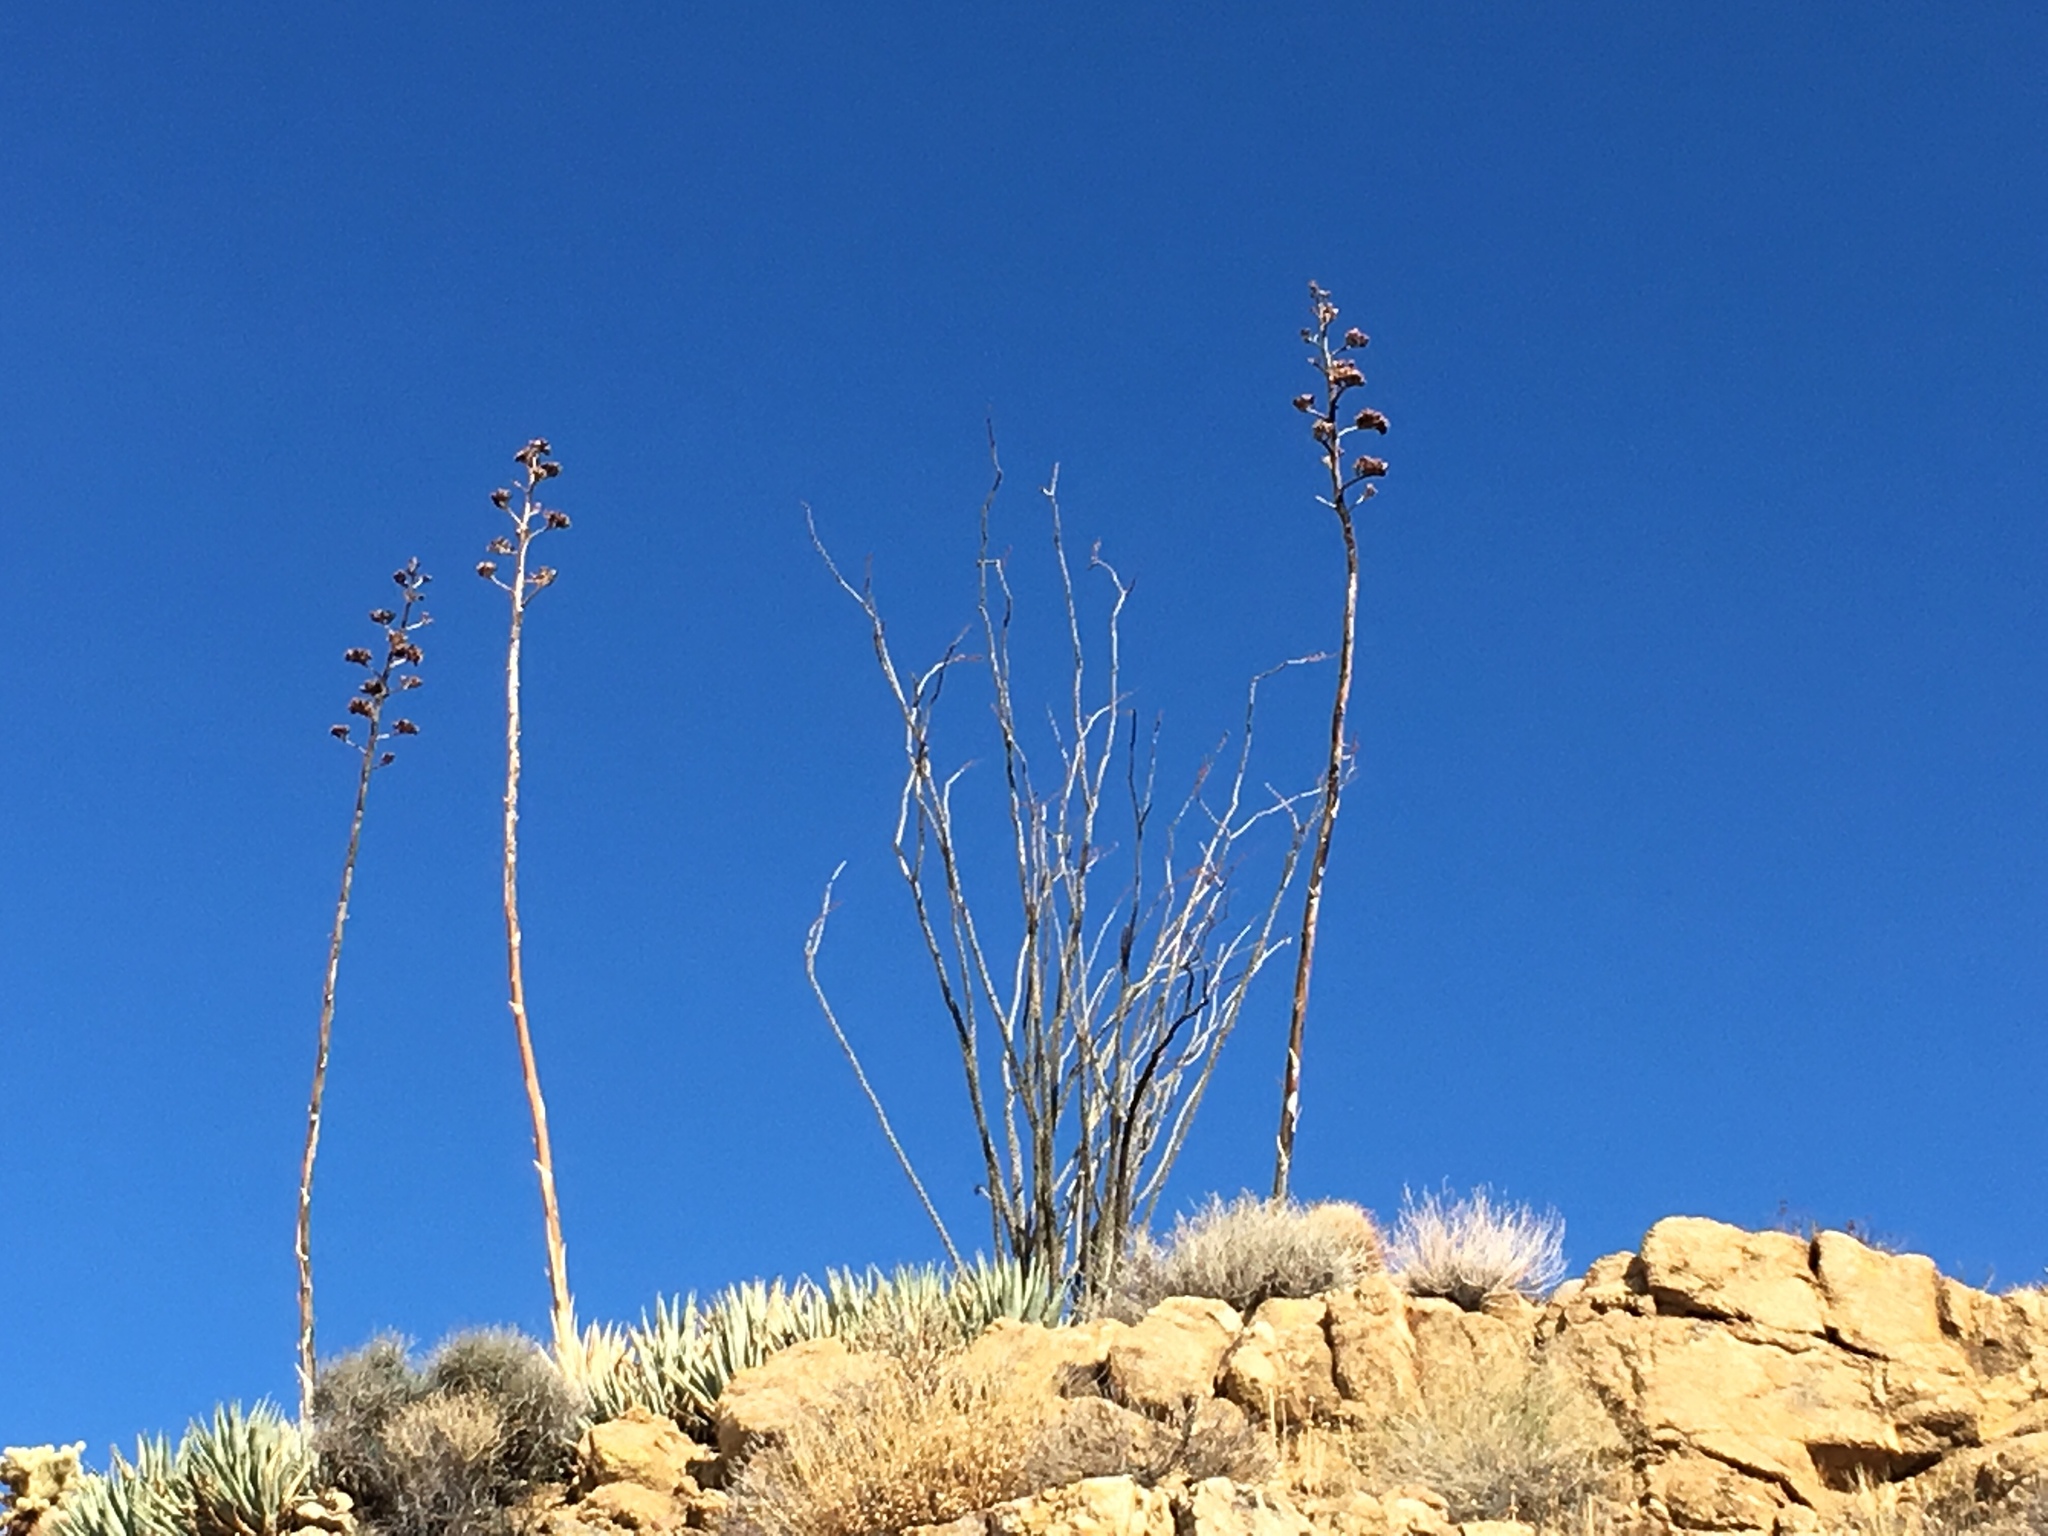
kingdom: Plantae
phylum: Tracheophyta
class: Magnoliopsida
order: Ericales
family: Fouquieriaceae
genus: Fouquieria
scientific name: Fouquieria splendens
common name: Vine-cactus
